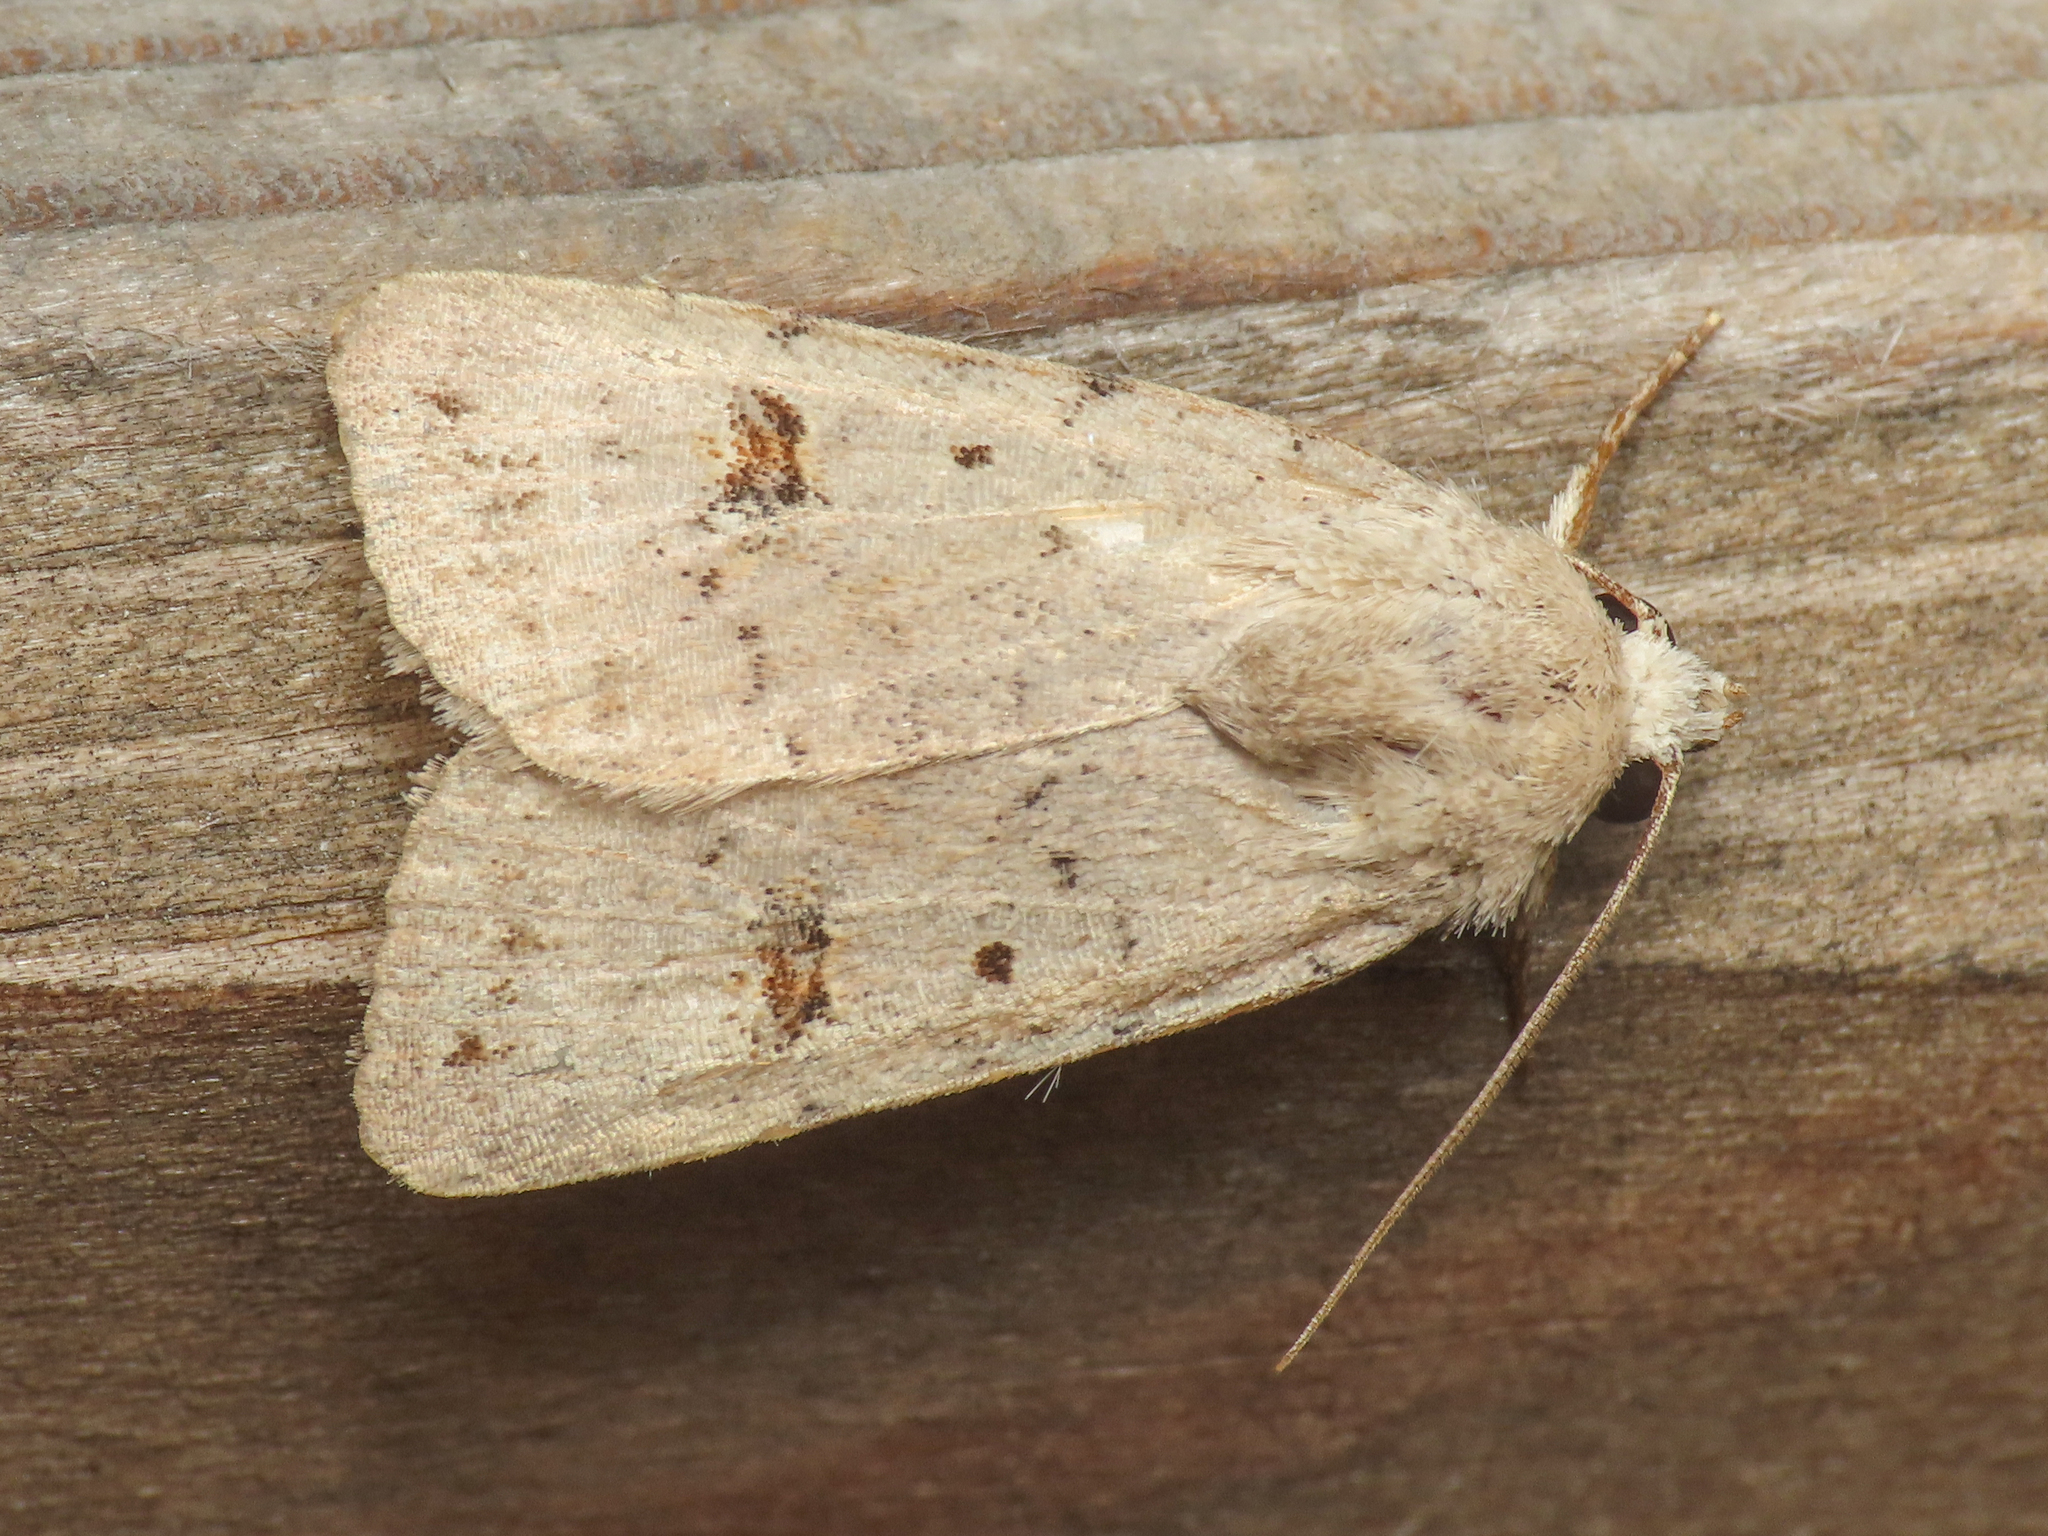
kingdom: Animalia
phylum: Arthropoda
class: Insecta
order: Lepidoptera
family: Noctuidae
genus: Caradrina
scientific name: Caradrina kadenii
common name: Clancy's rustic
